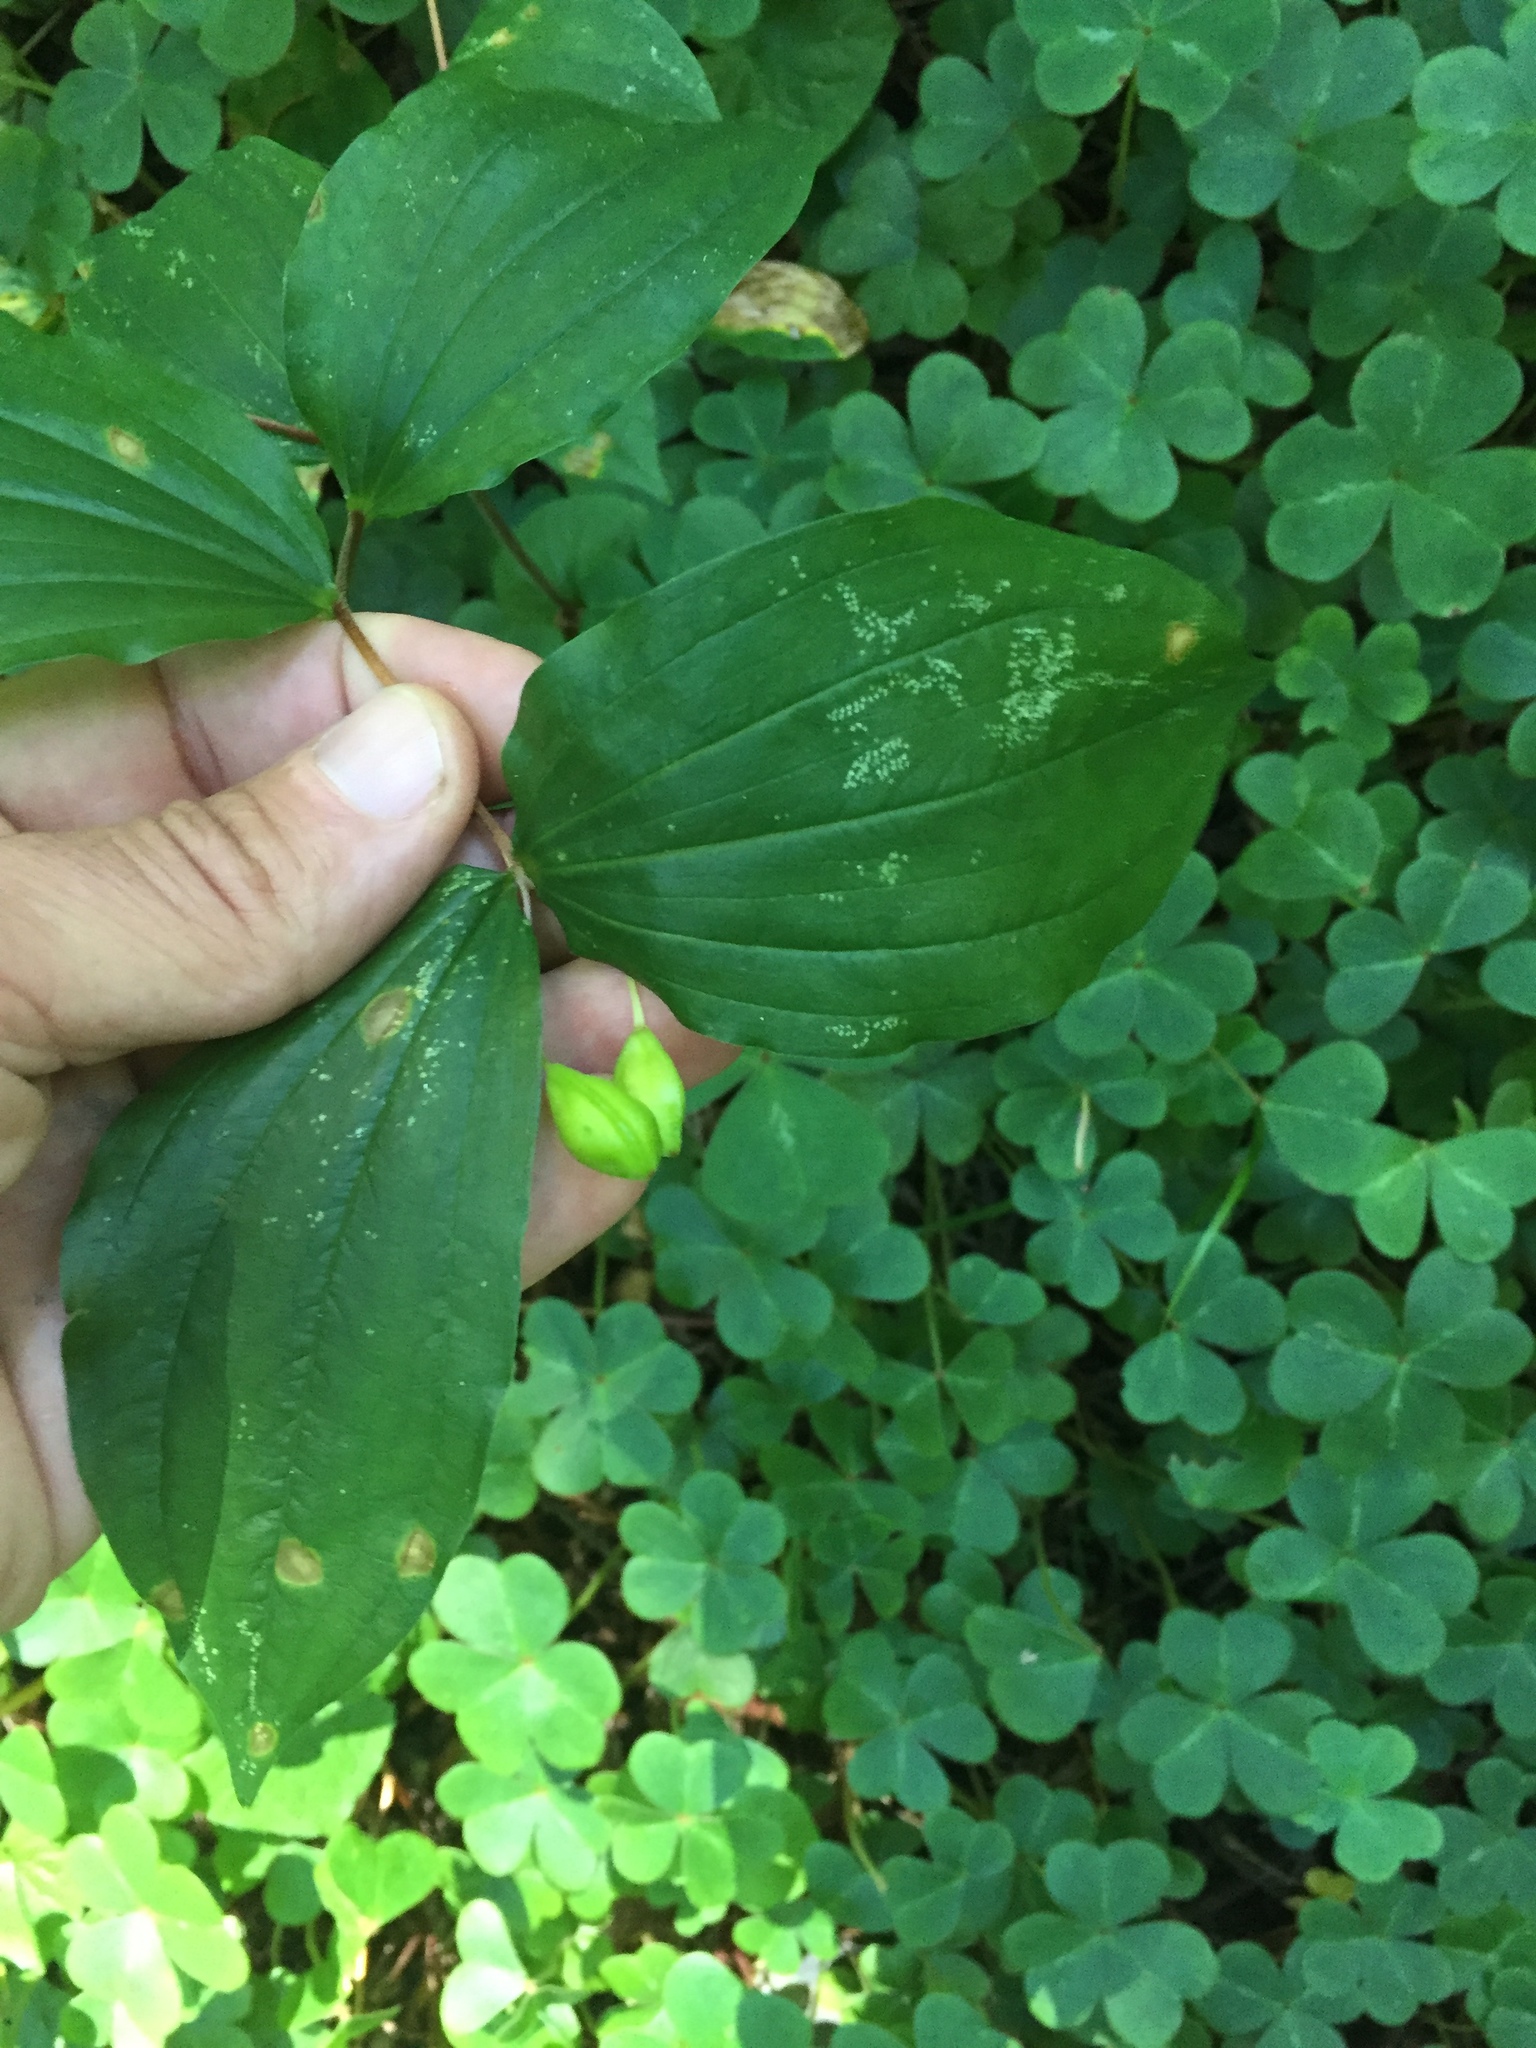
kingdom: Plantae
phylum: Tracheophyta
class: Liliopsida
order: Liliales
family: Liliaceae
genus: Prosartes
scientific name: Prosartes smithii
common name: Fairy-lantern
